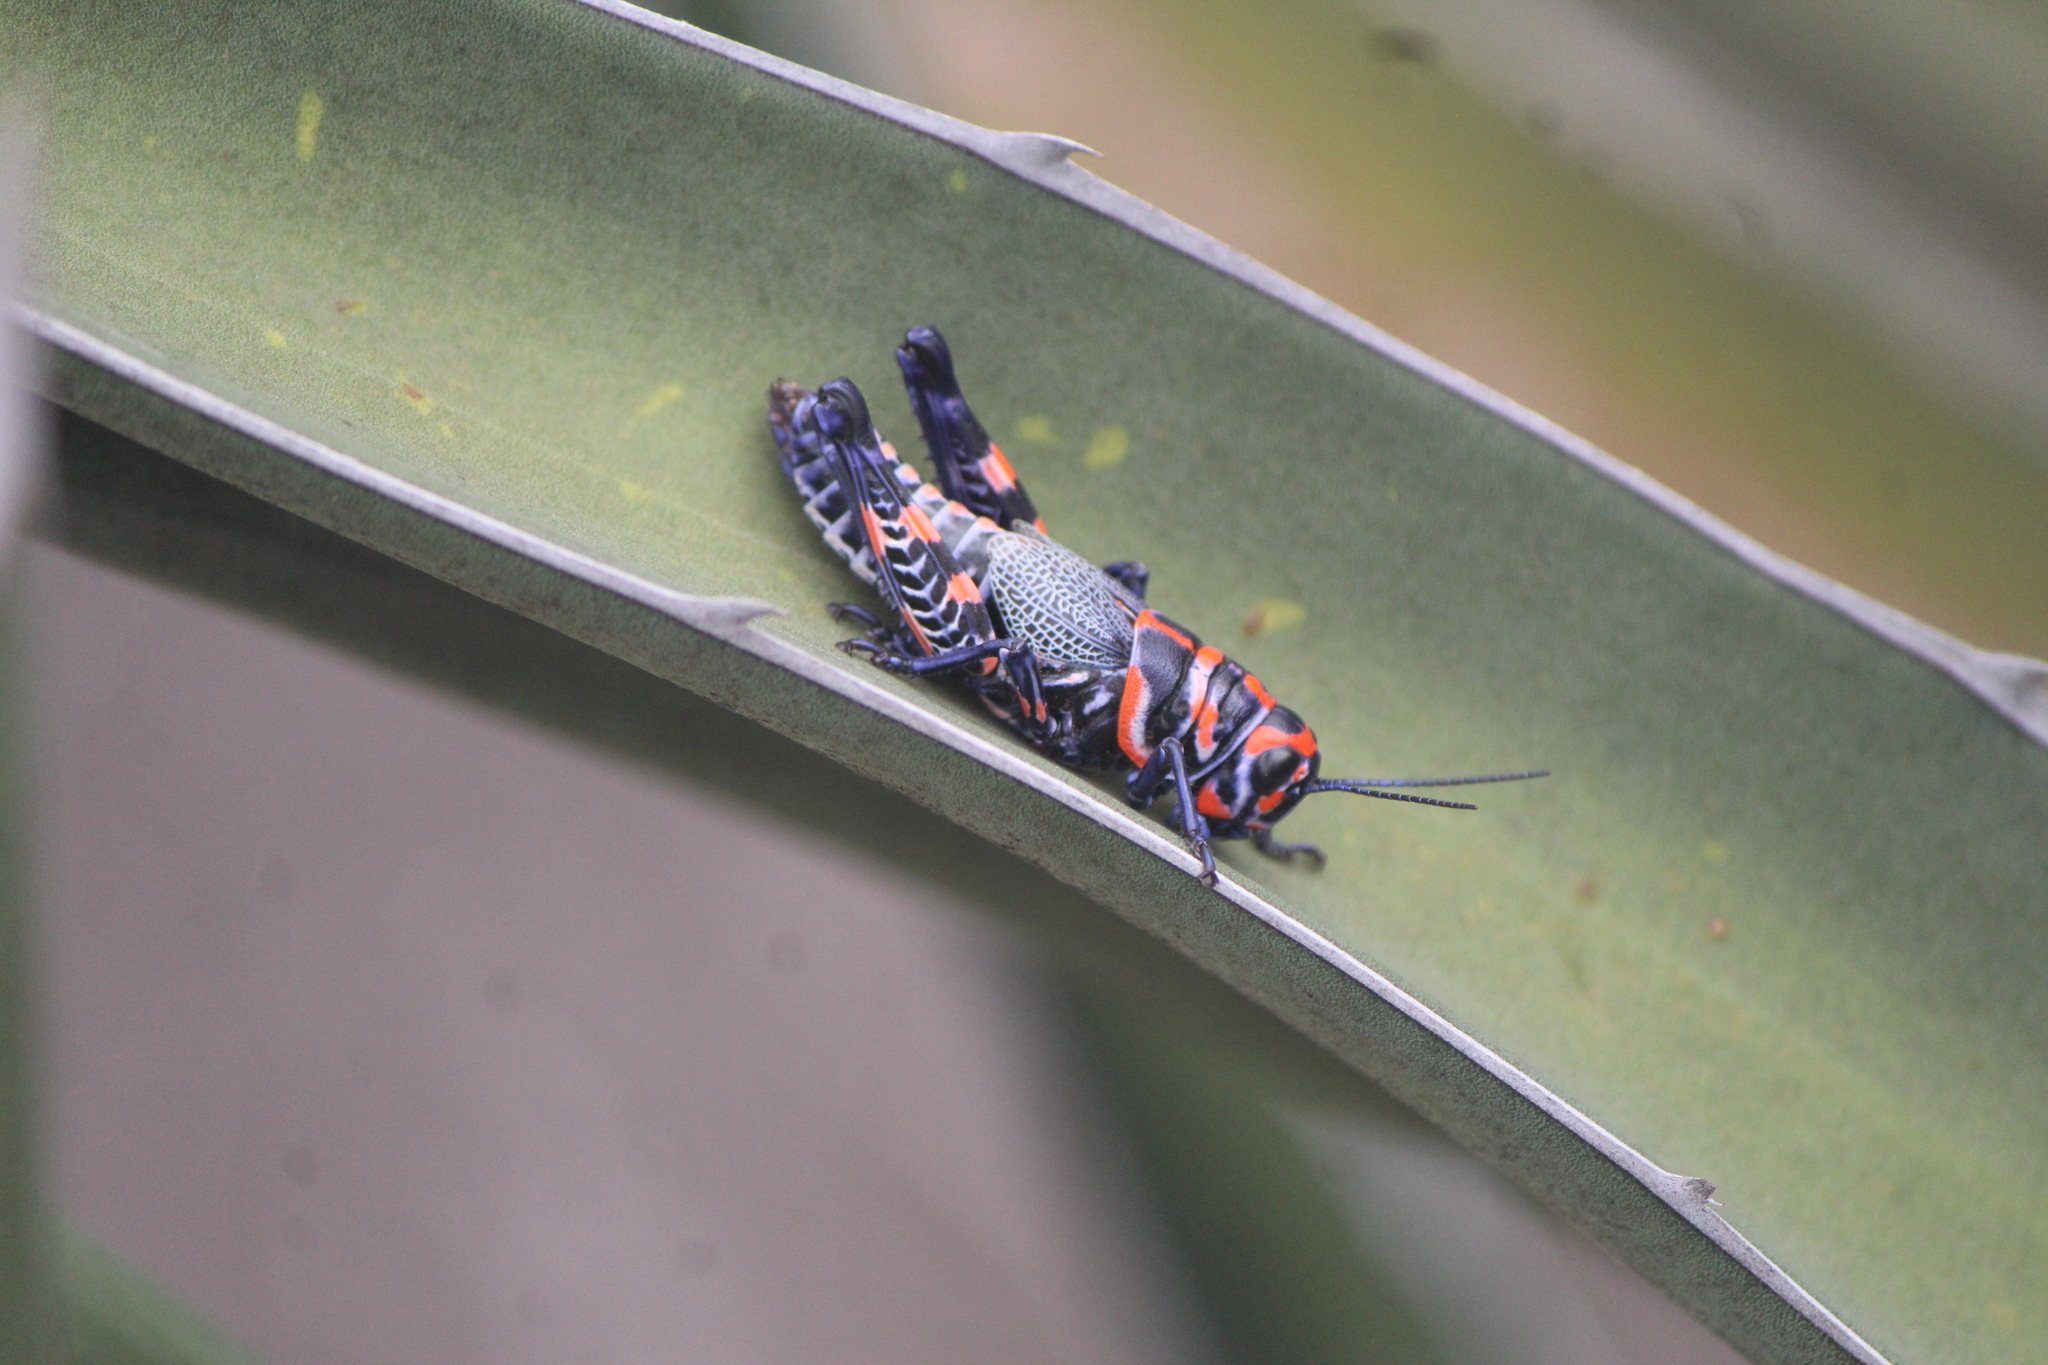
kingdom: Animalia
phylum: Arthropoda
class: Insecta
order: Orthoptera
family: Acrididae
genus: Dactylotum
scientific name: Dactylotum bicolor
